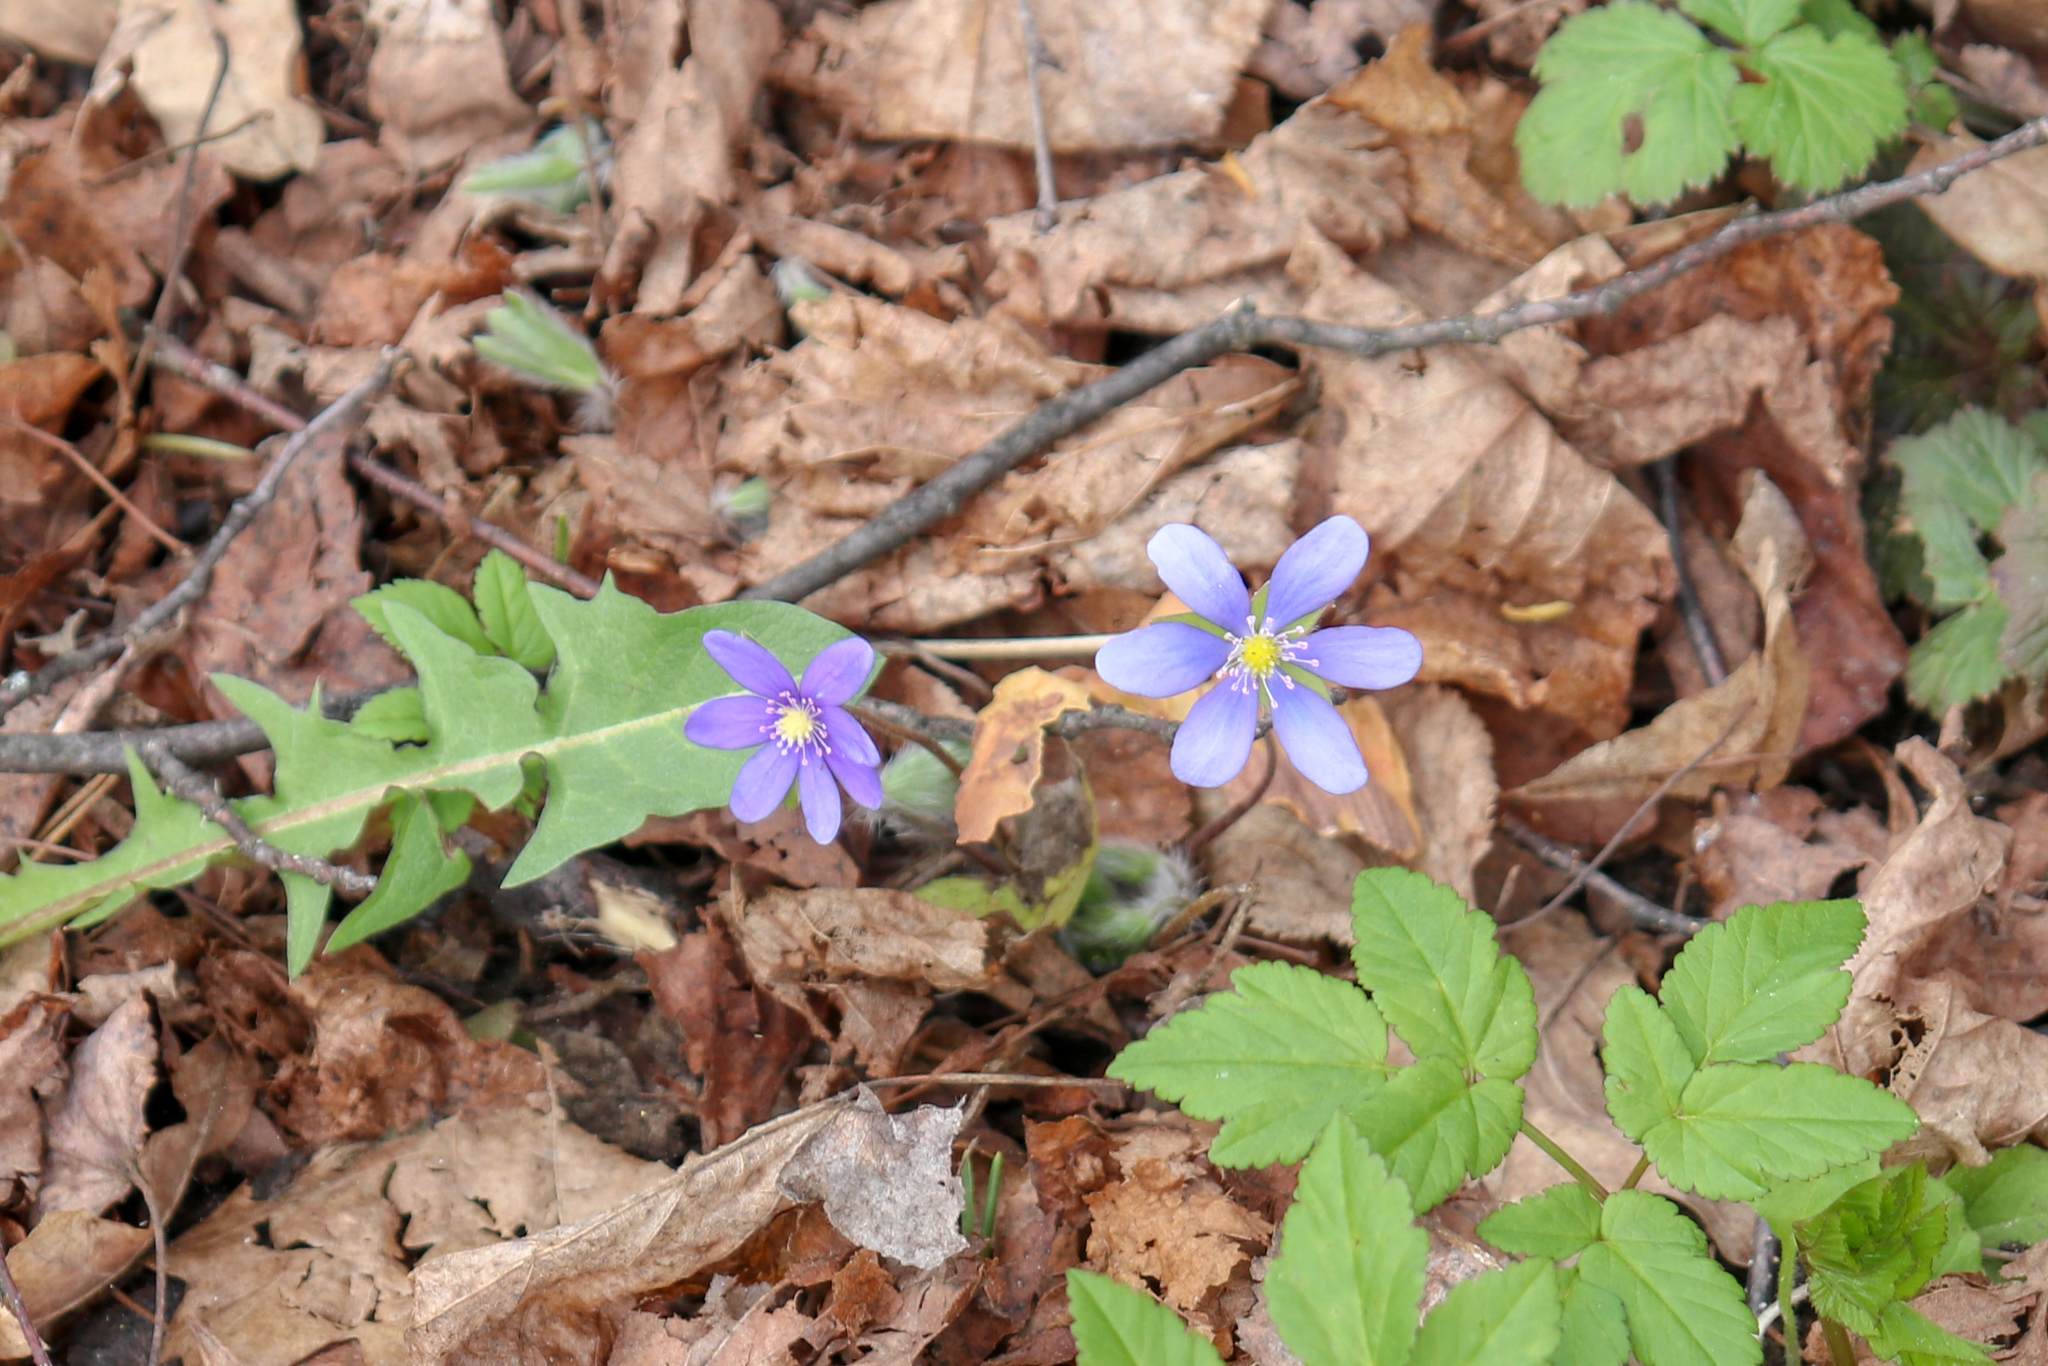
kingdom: Plantae
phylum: Tracheophyta
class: Magnoliopsida
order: Ranunculales
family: Ranunculaceae
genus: Hepatica
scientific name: Hepatica nobilis
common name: Liverleaf
